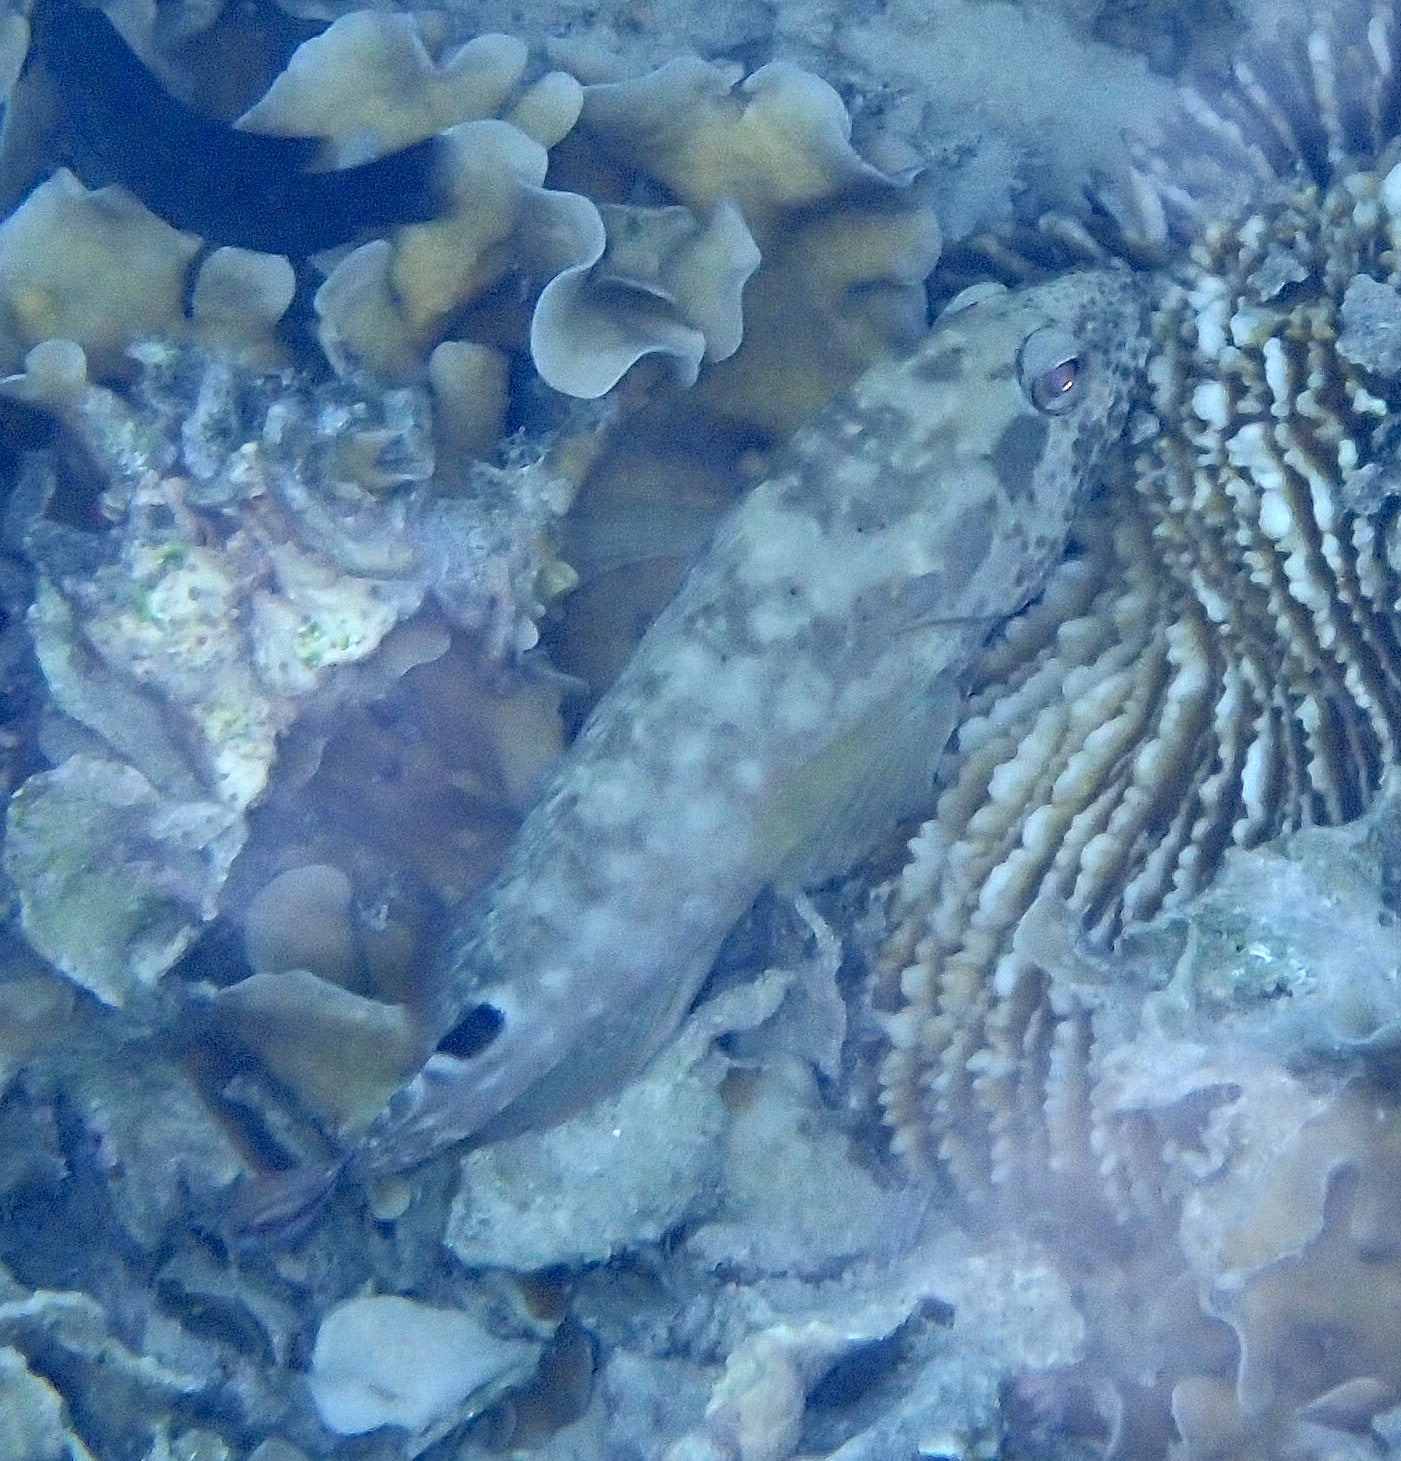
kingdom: Animalia
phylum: Chordata
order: Perciformes
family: Serranidae
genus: Cephalopholis
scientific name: Cephalopholis leopardus
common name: Leopard hind
